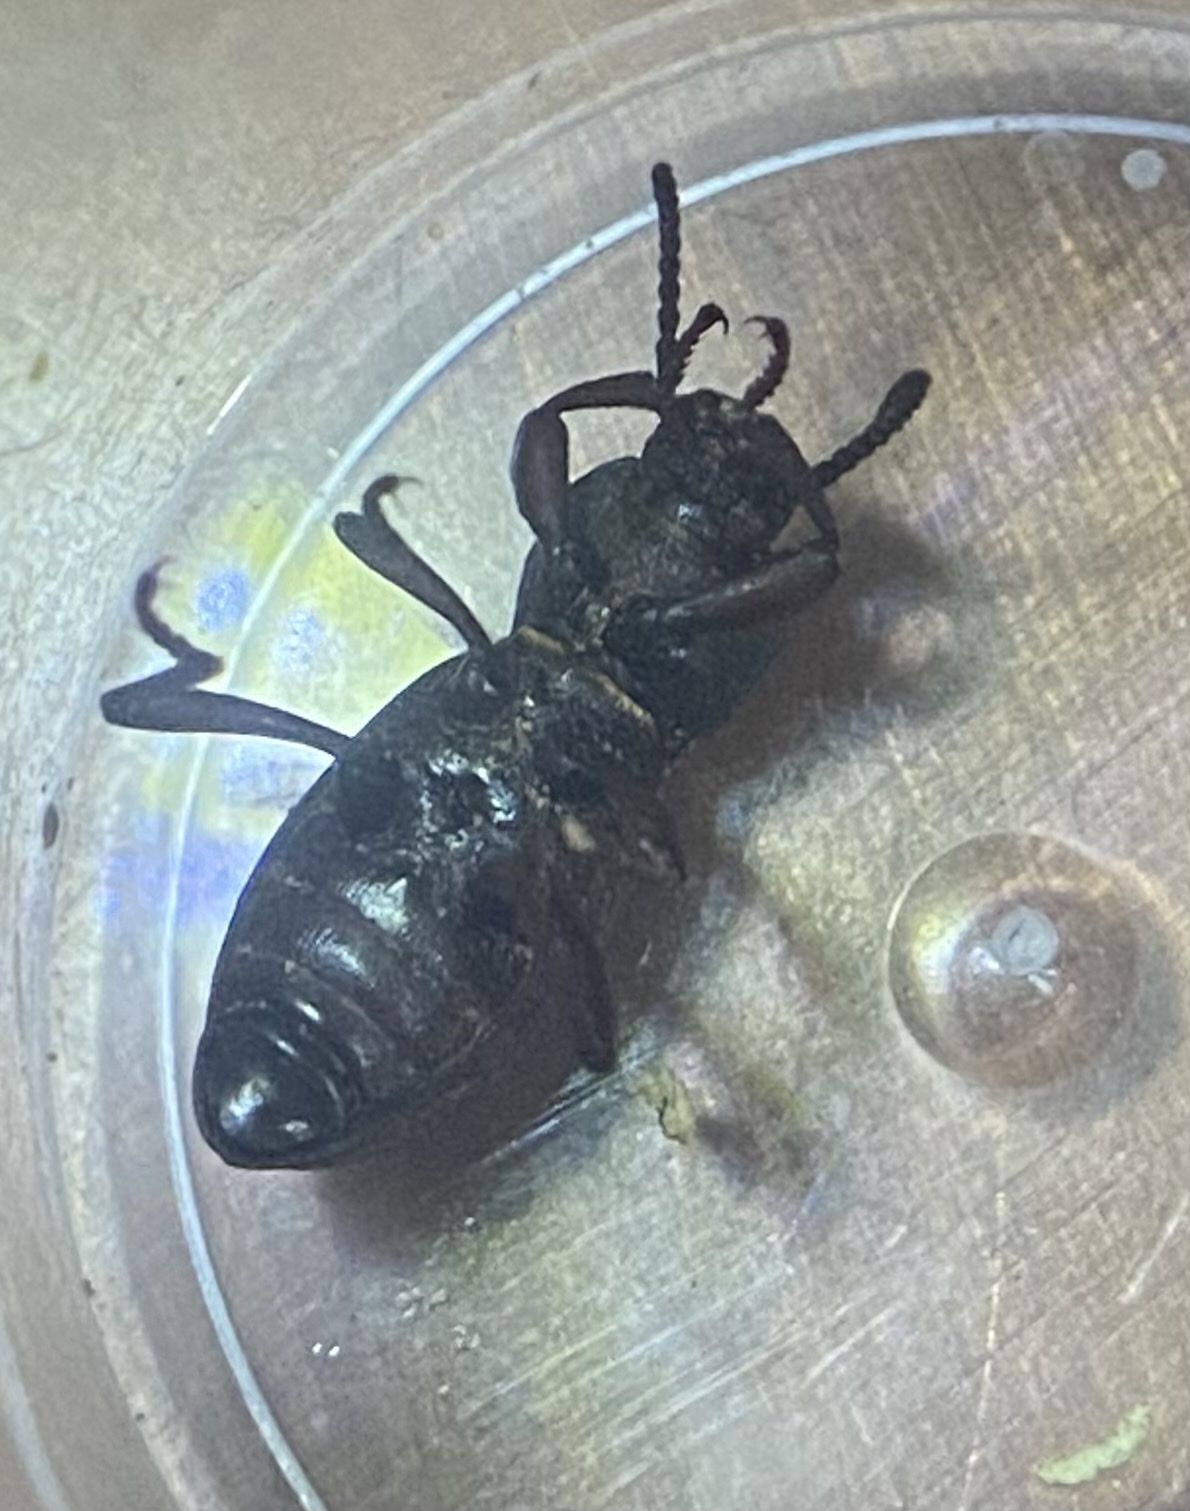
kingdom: Animalia
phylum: Arthropoda
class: Insecta
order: Coleoptera
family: Tenebrionidae
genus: Argoporis
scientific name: Argoporis costipennis
